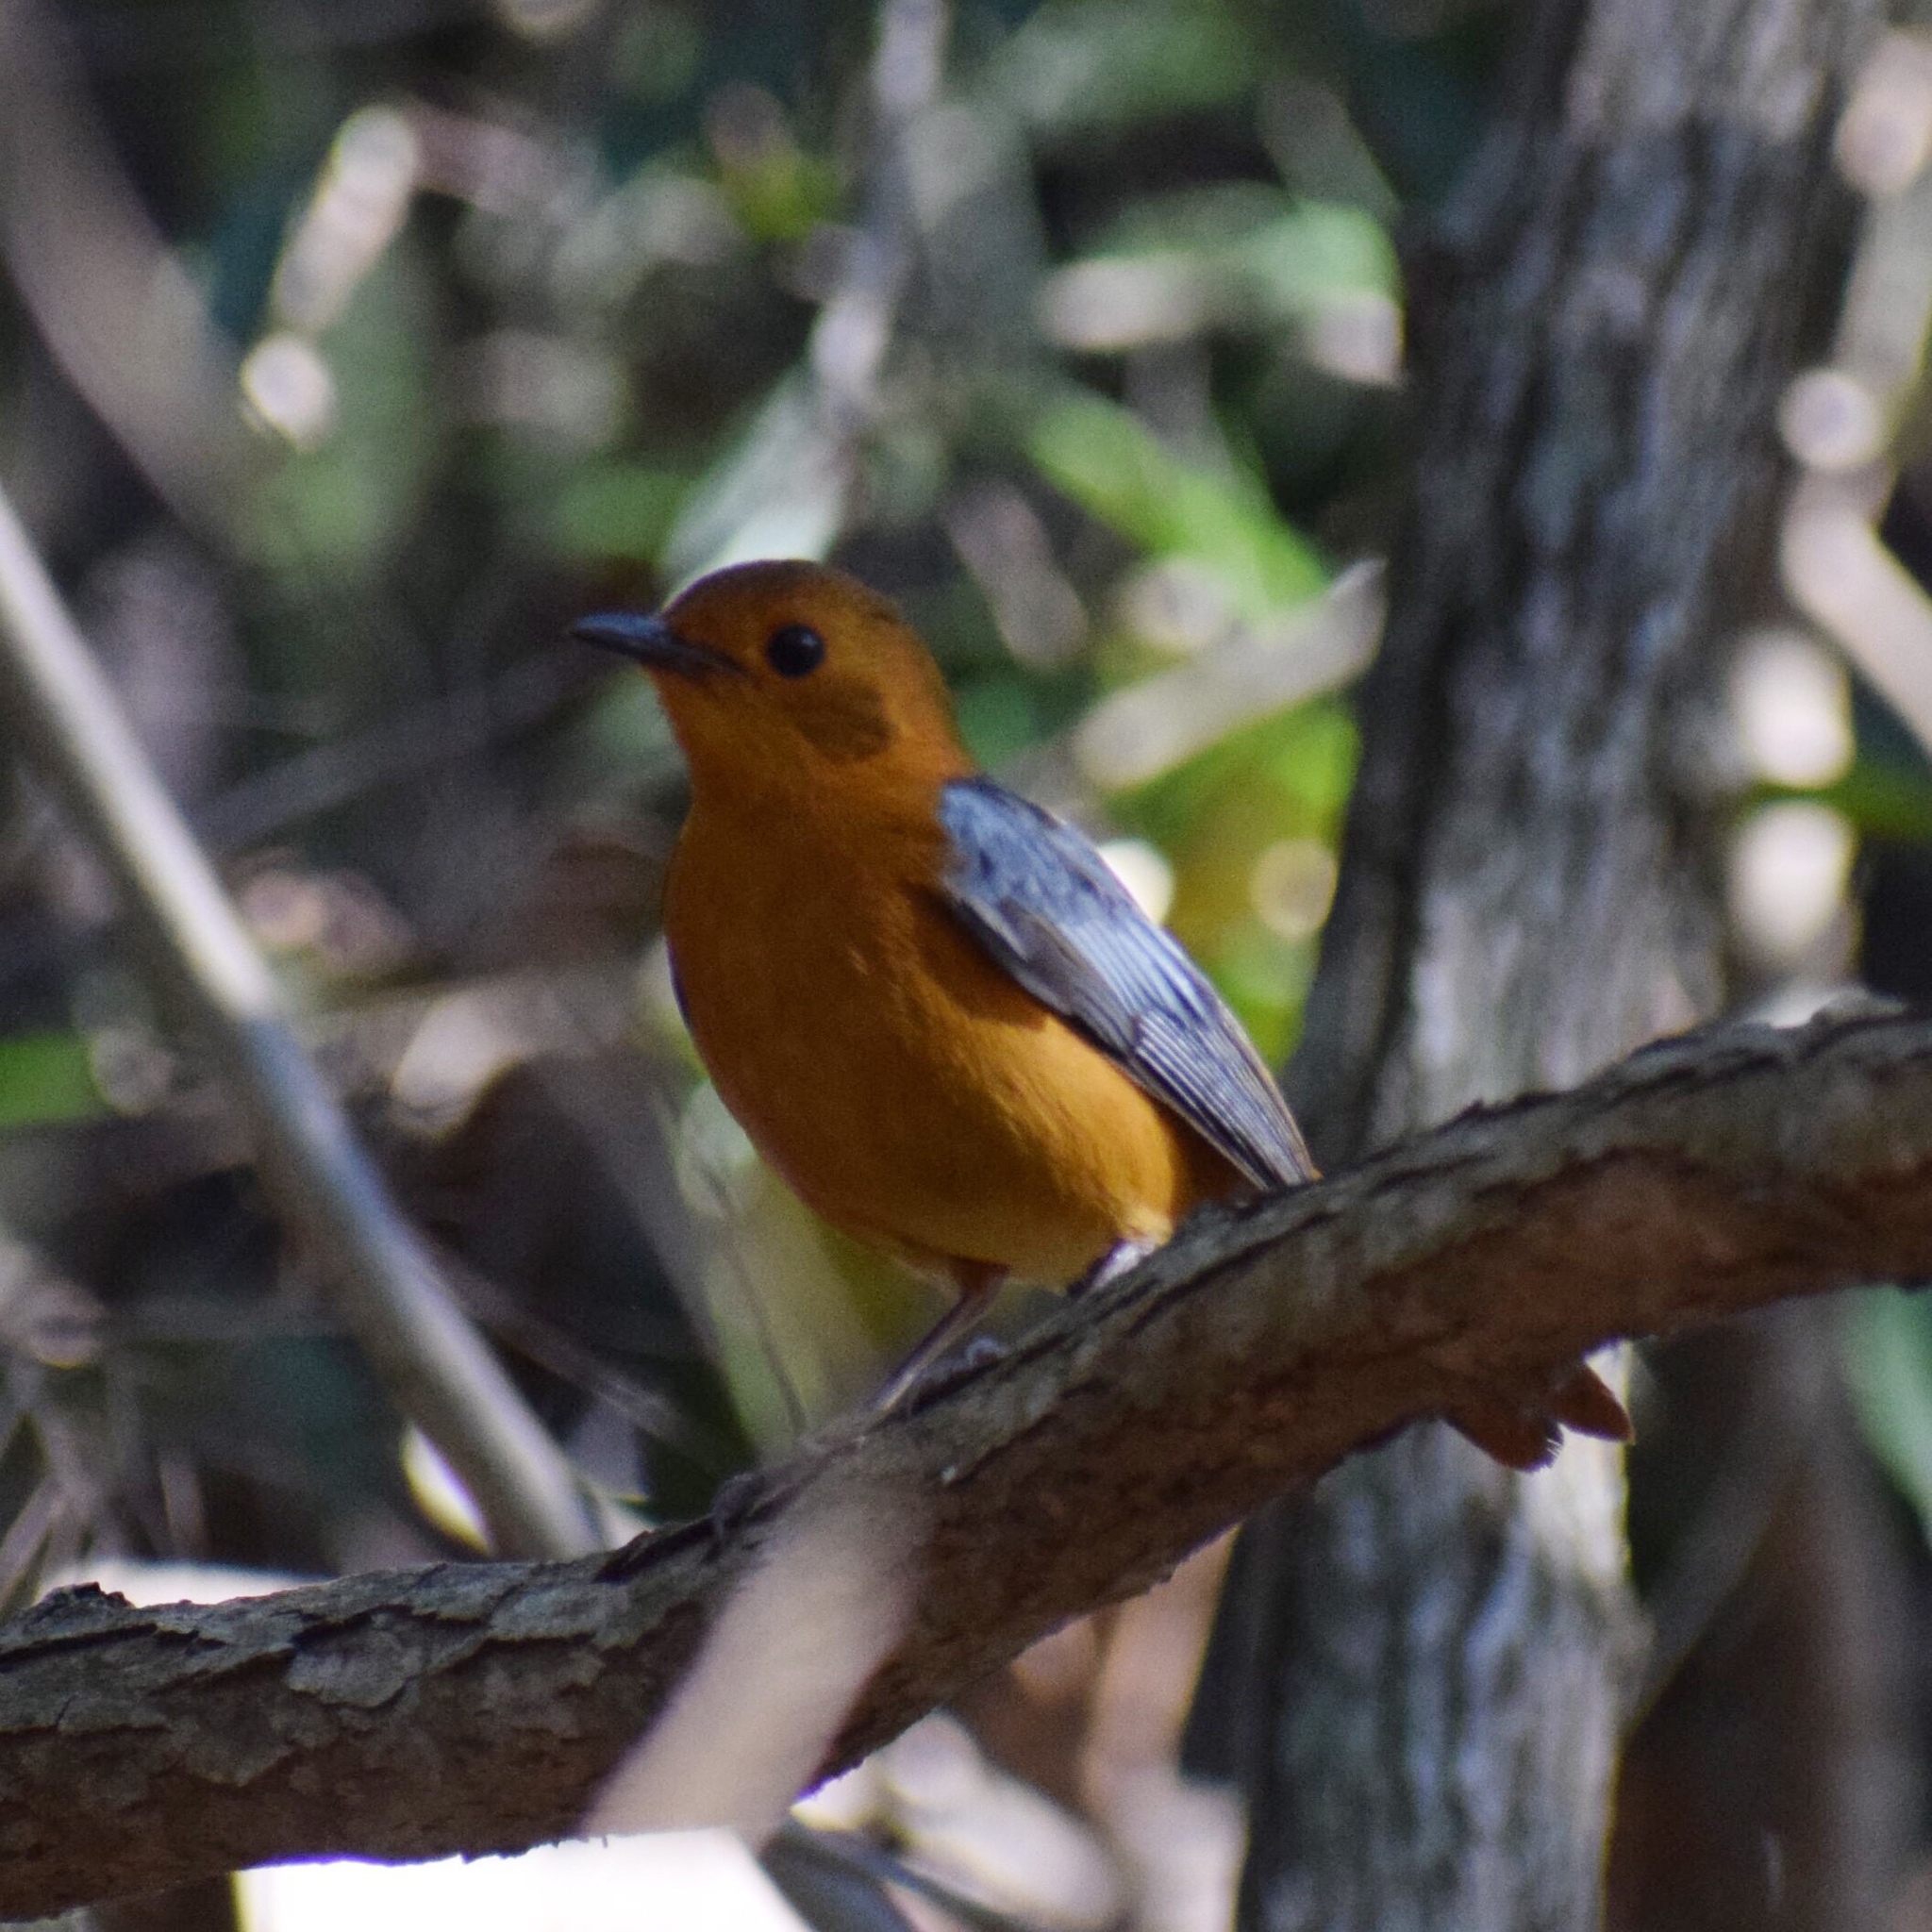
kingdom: Animalia
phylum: Chordata
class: Aves
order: Passeriformes
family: Muscicapidae
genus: Cossypha
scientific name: Cossypha natalensis
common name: Red-capped robin-chat
